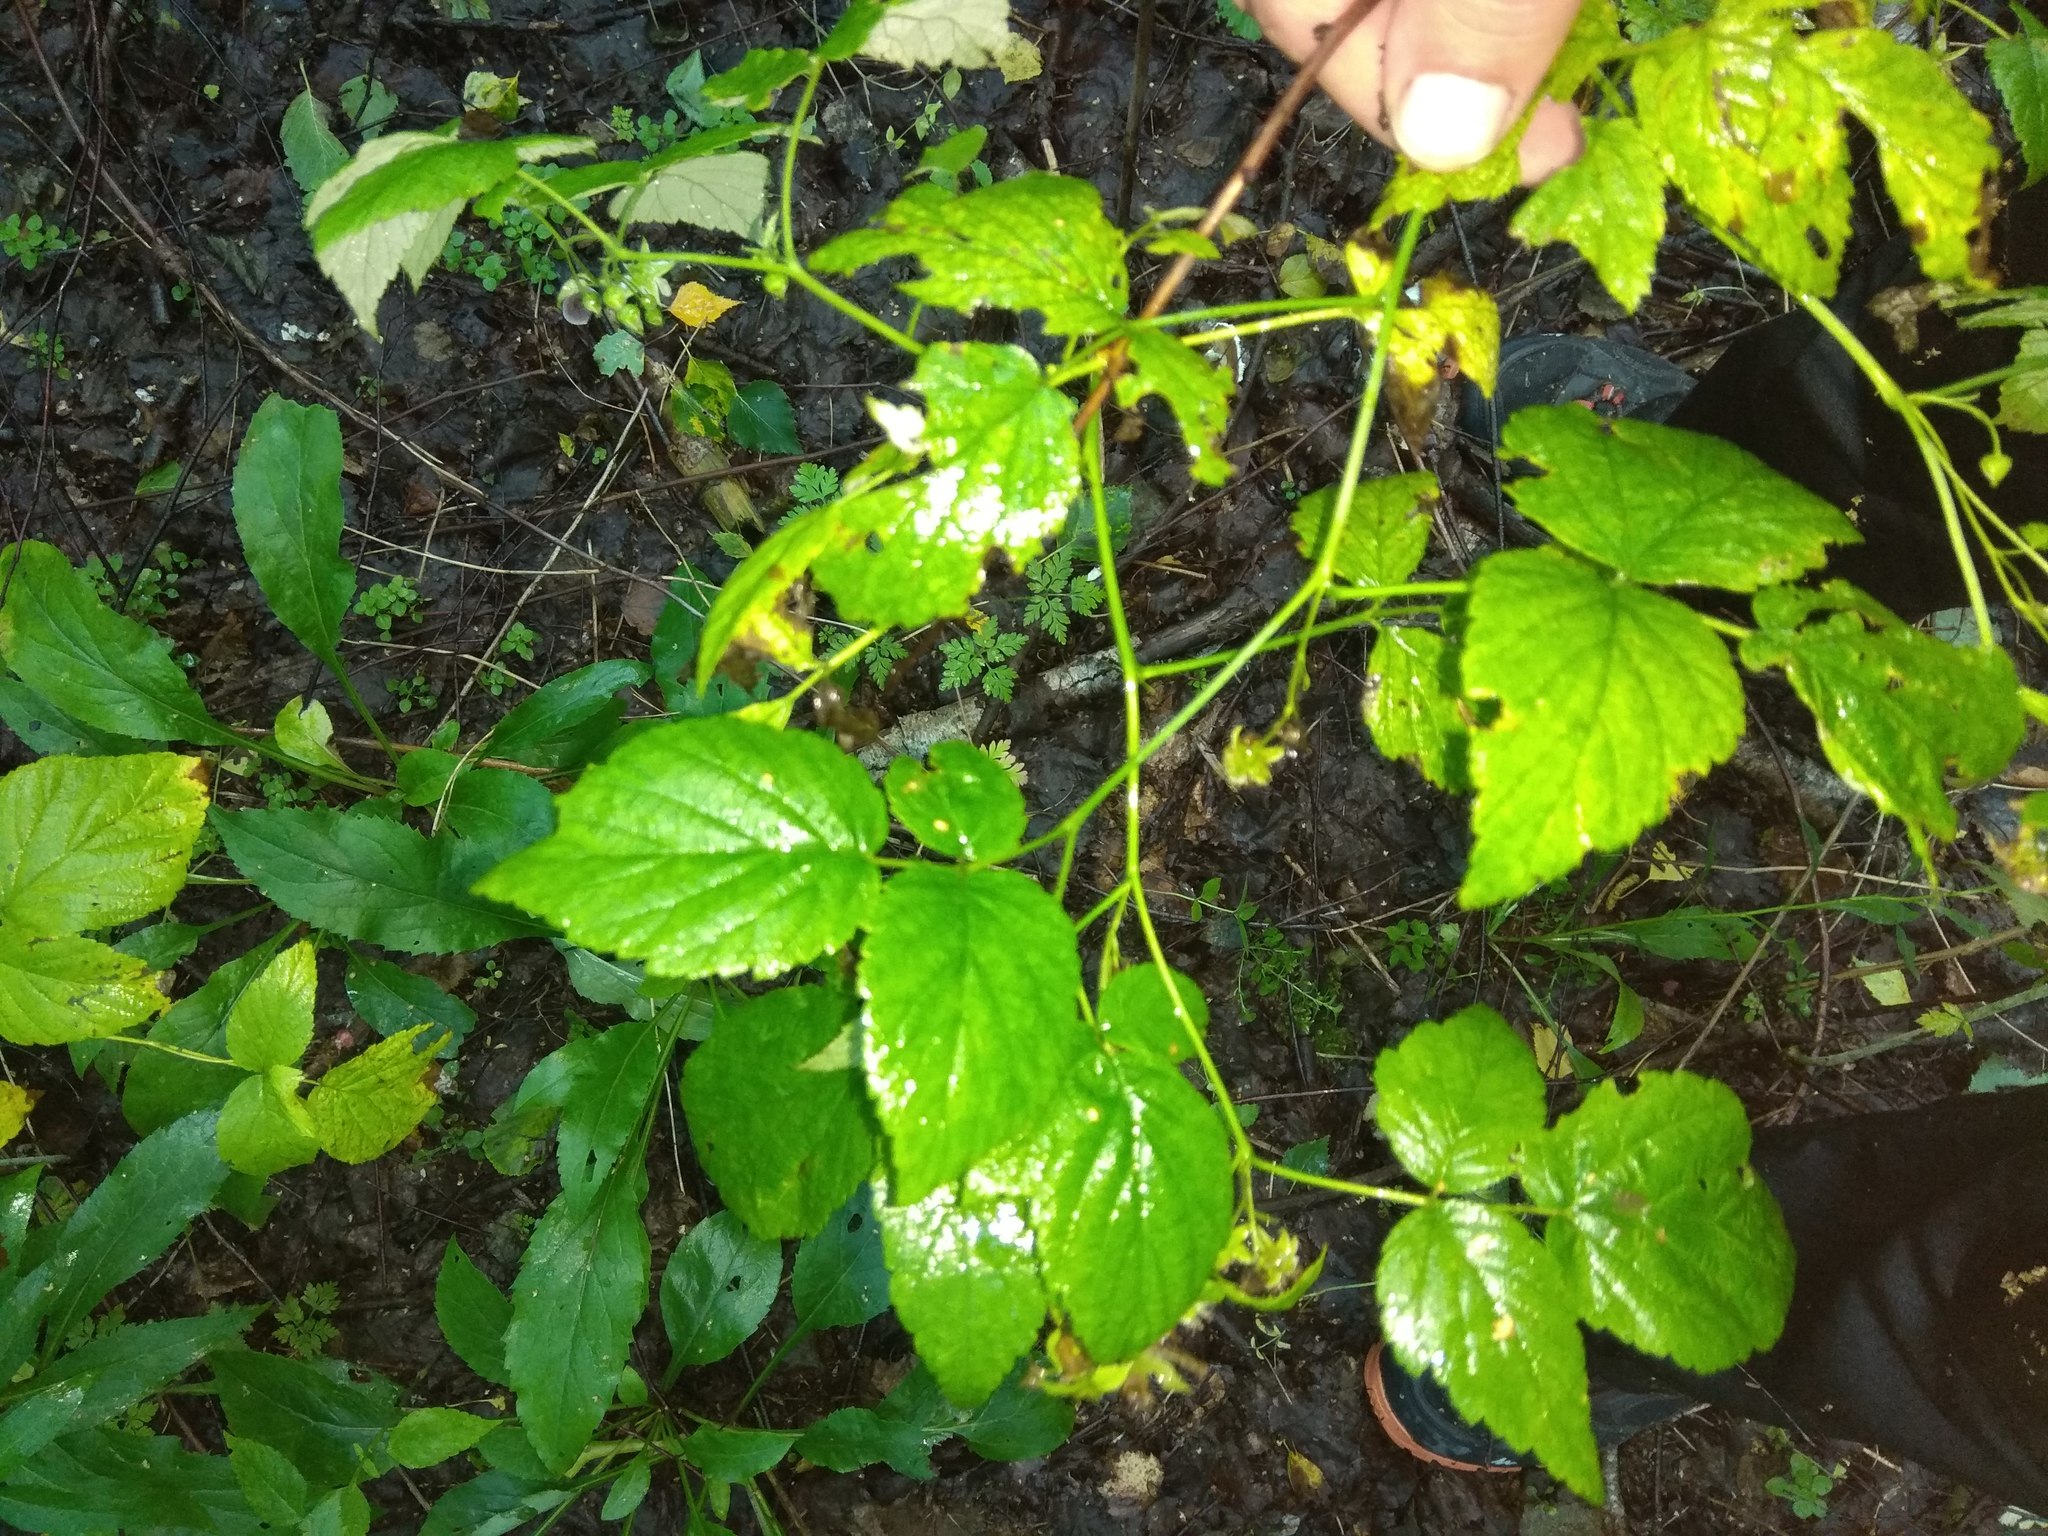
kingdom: Plantae
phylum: Tracheophyta
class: Magnoliopsida
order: Rosales
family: Rosaceae
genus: Rubus
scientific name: Rubus idaeus
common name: Raspberry
